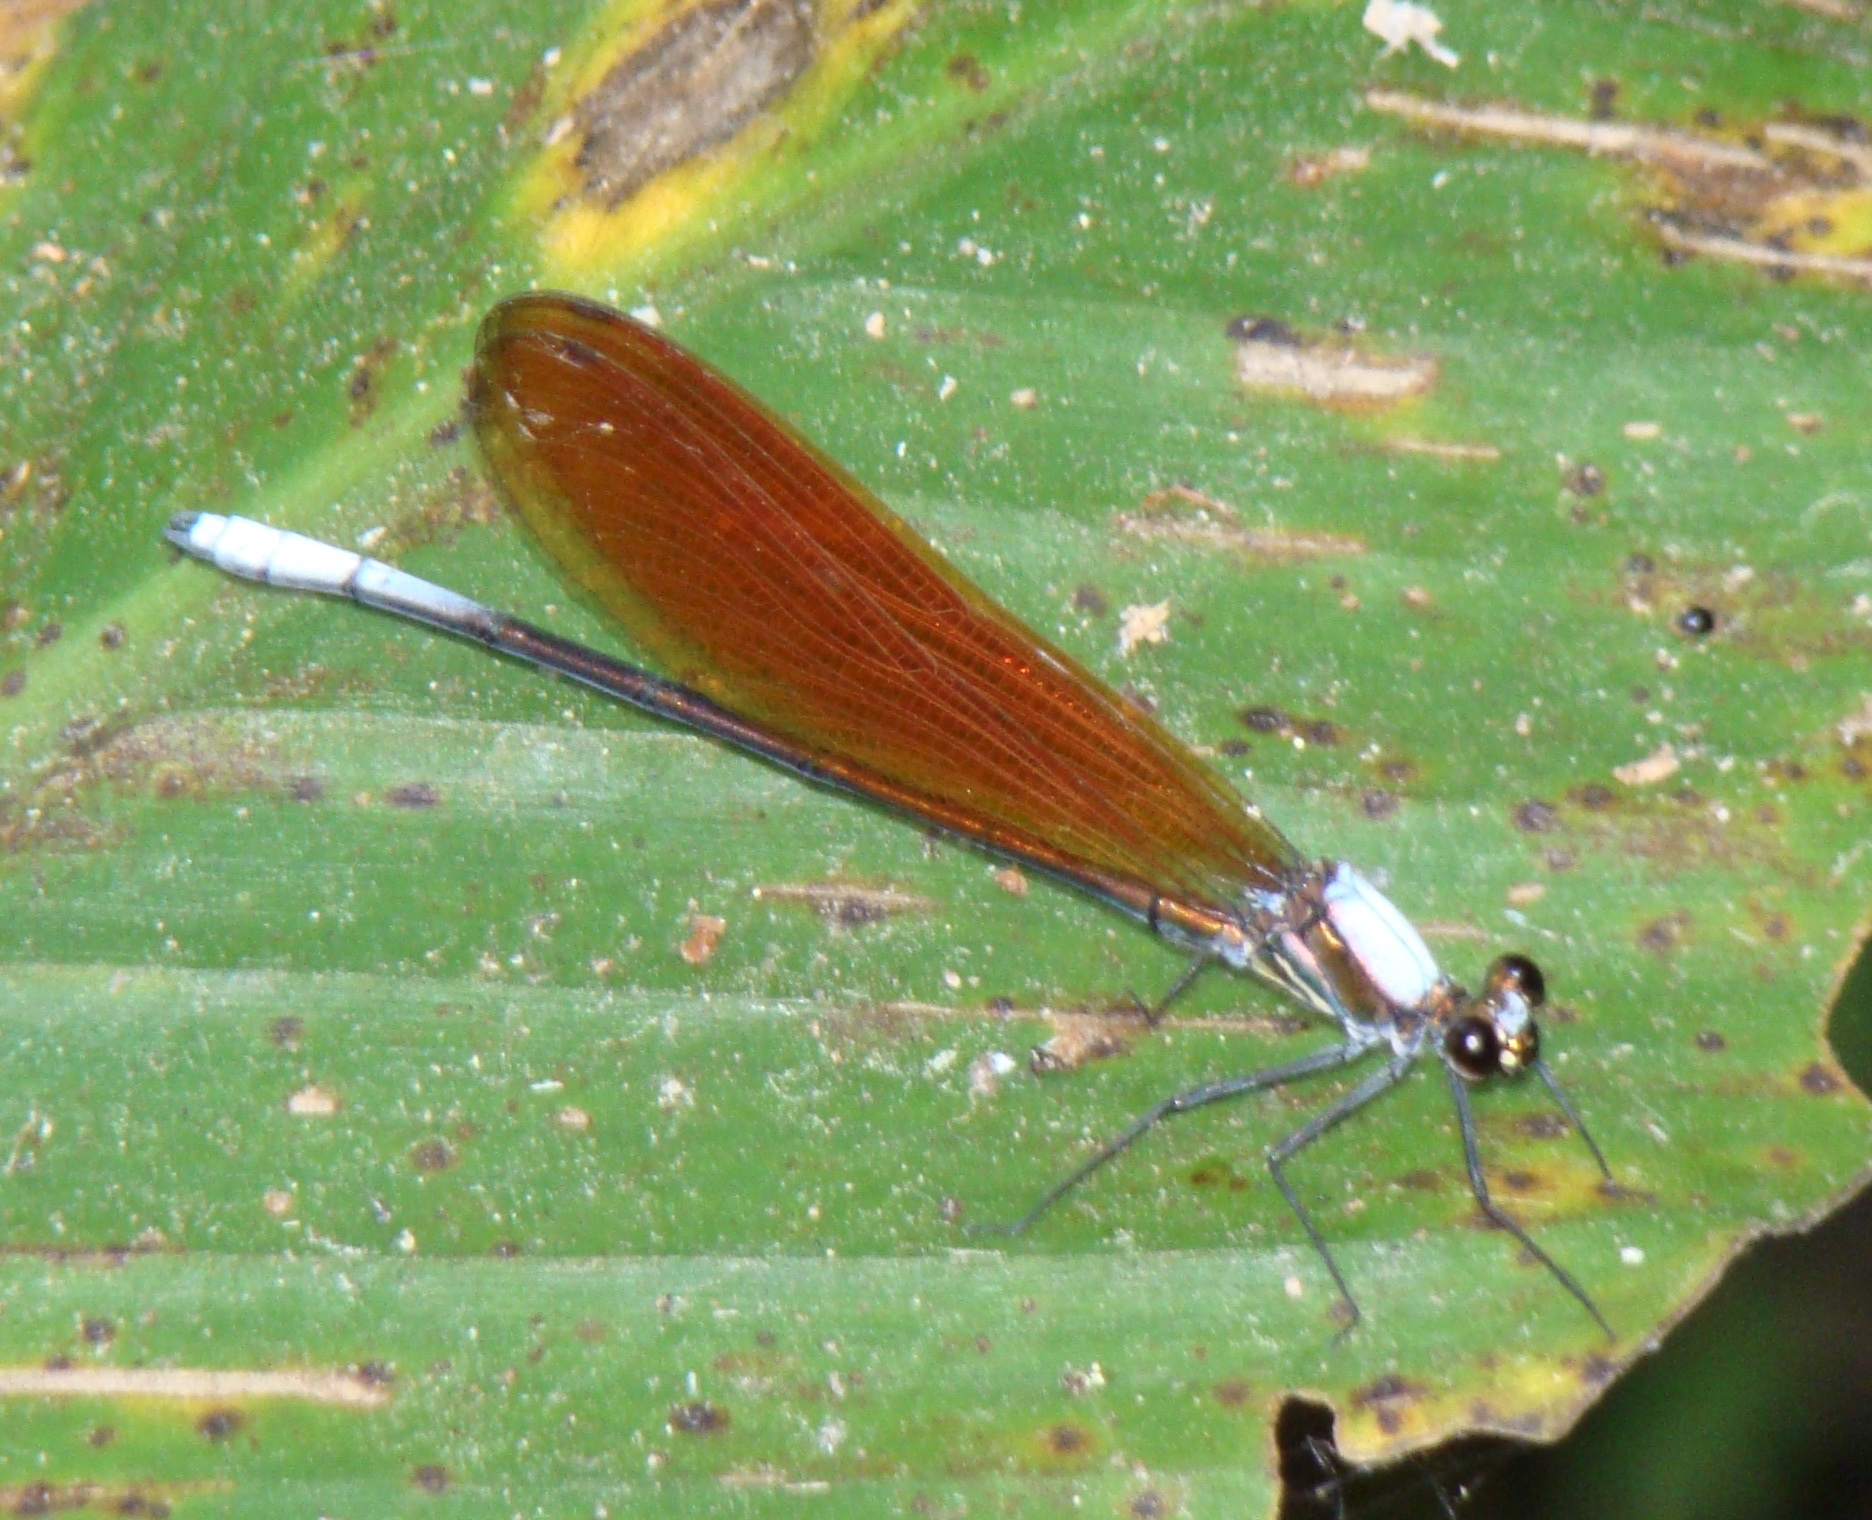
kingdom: Animalia
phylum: Arthropoda
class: Insecta
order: Odonata
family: Calopterygidae
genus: Mnais
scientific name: Mnais andersoni
